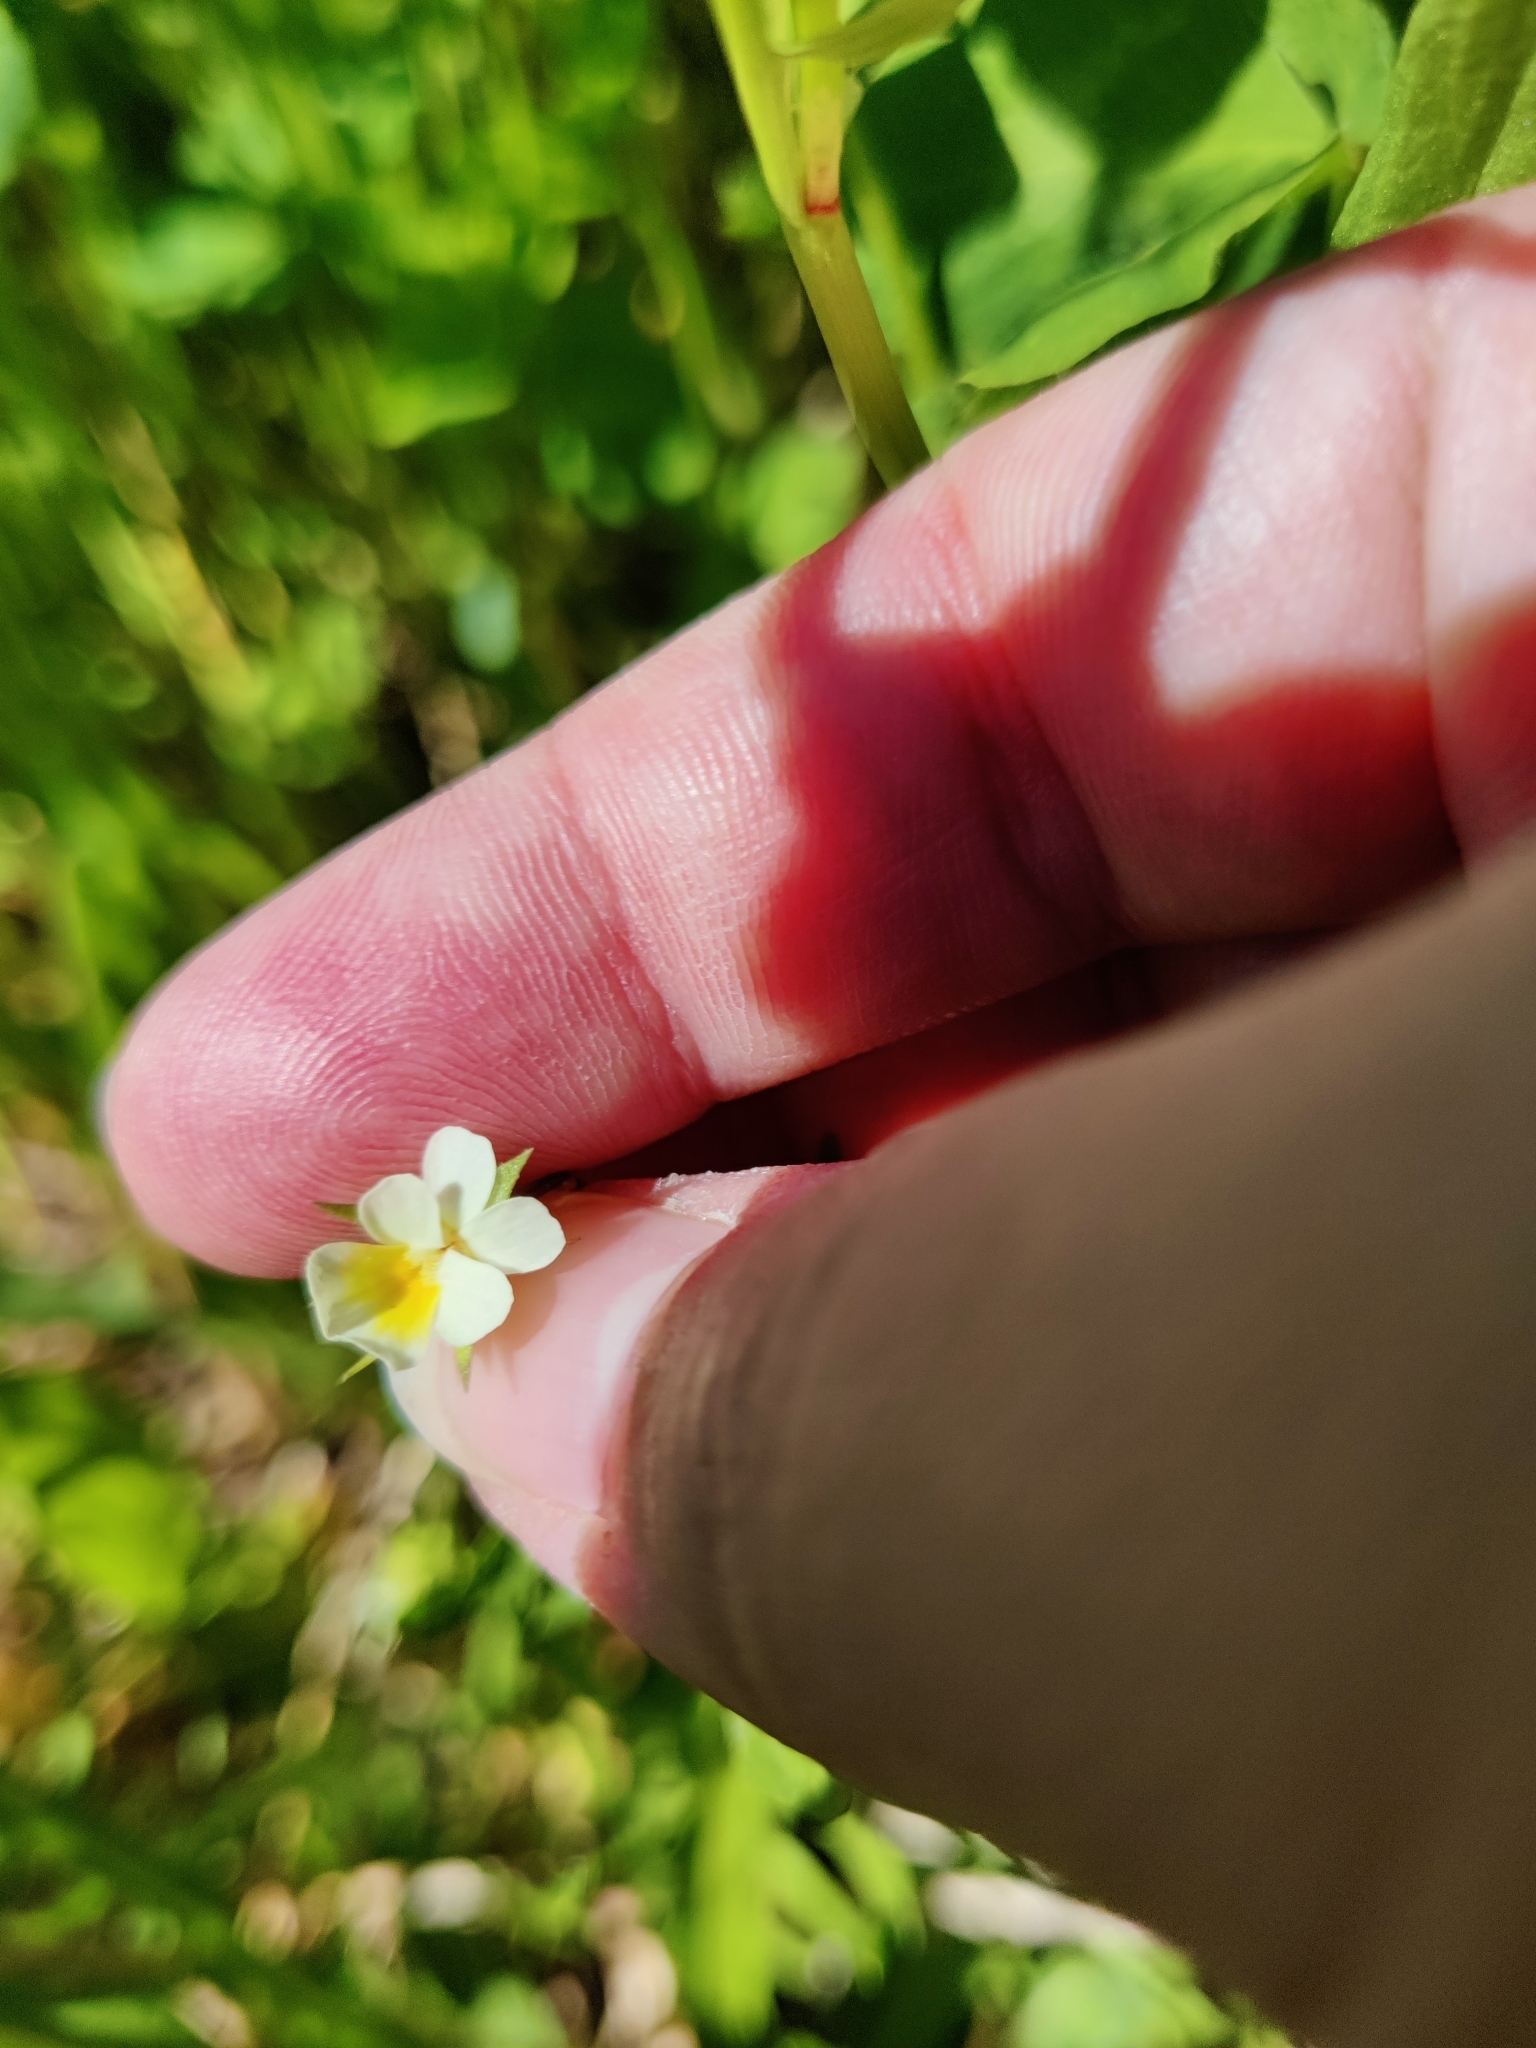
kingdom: Plantae
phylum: Tracheophyta
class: Magnoliopsida
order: Malpighiales
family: Violaceae
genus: Viola
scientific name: Viola arvensis
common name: Field pansy
